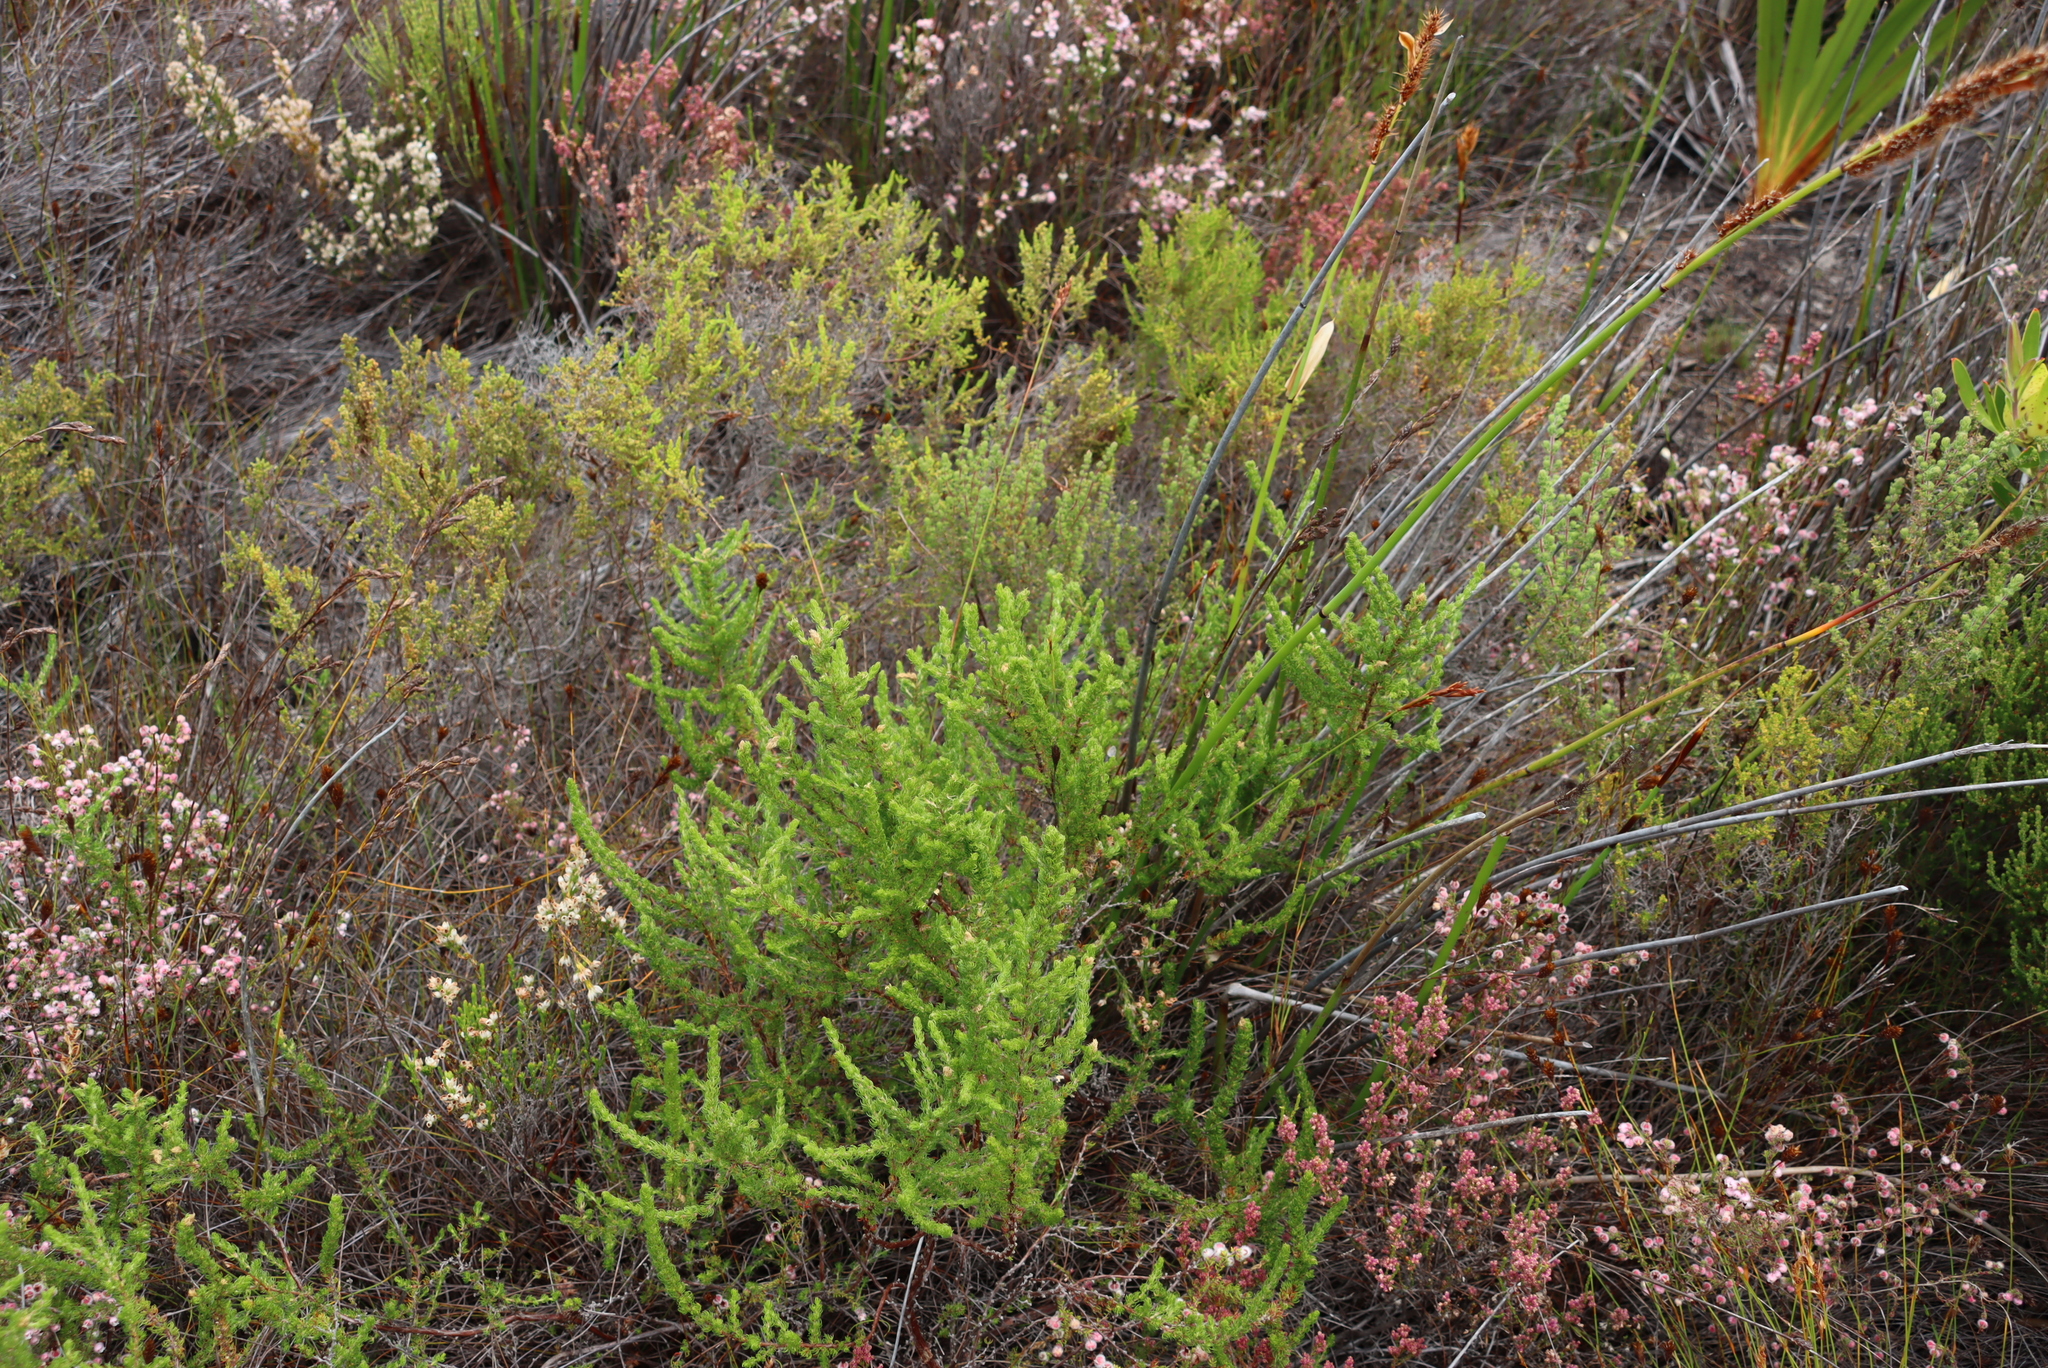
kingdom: Plantae
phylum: Tracheophyta
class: Magnoliopsida
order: Rosales
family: Rosaceae
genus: Cliffortia
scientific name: Cliffortia subsetacea
